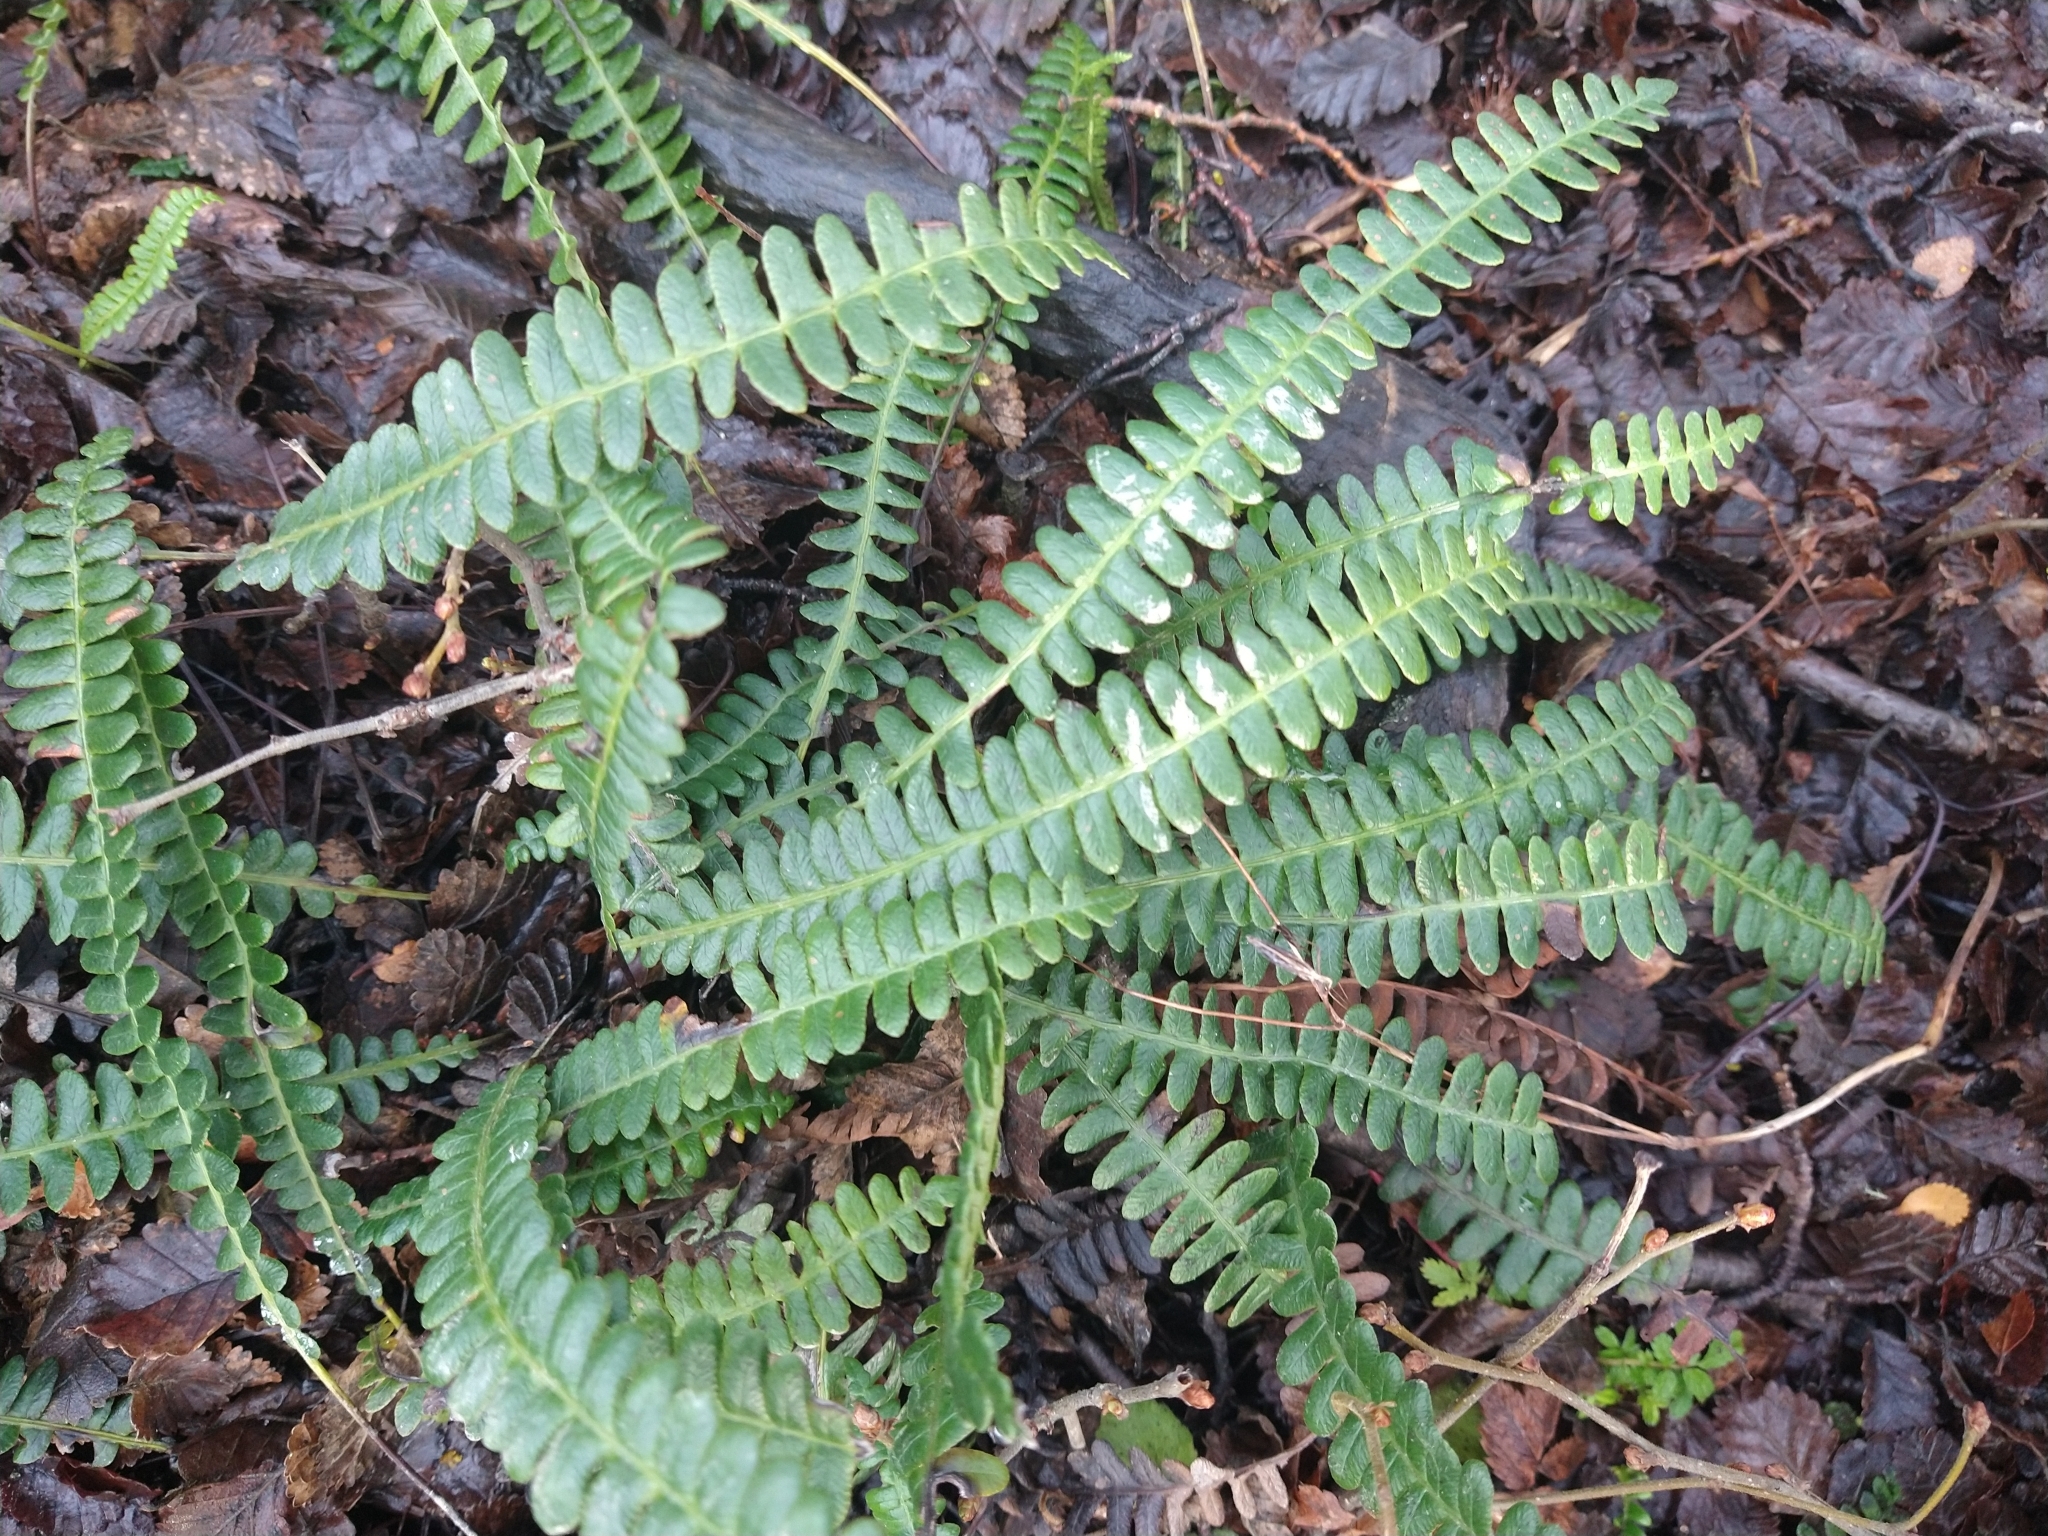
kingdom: Plantae
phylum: Tracheophyta
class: Polypodiopsida
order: Polypodiales
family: Blechnaceae
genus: Austroblechnum
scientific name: Austroblechnum penna-marina
